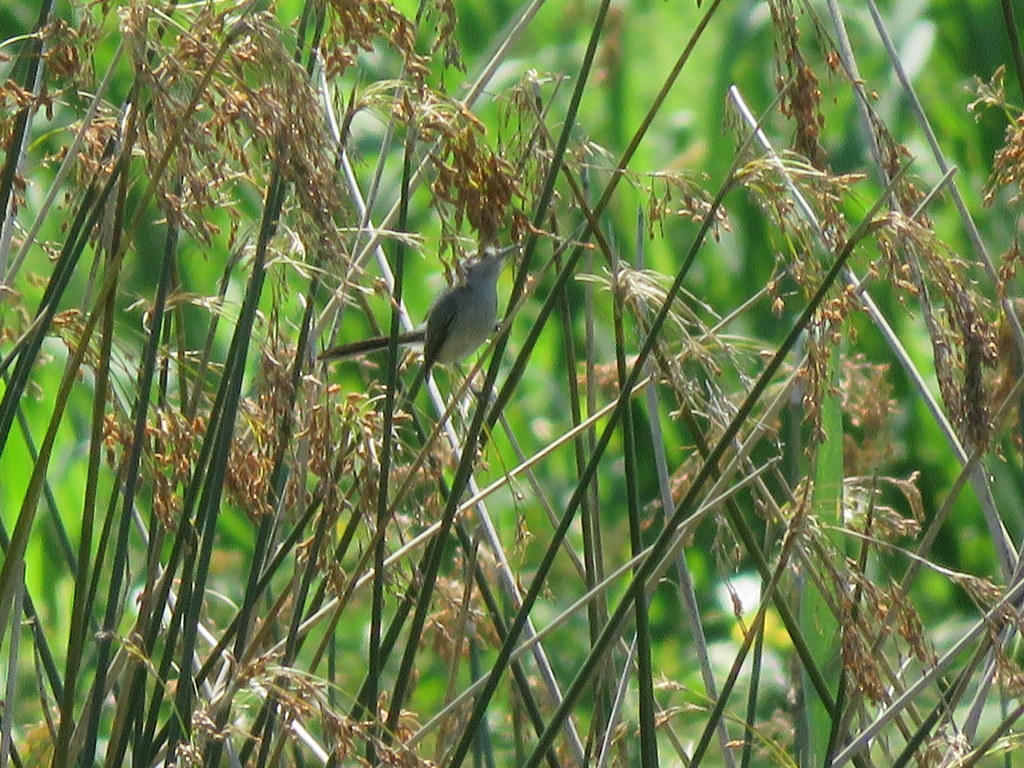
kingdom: Animalia
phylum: Chordata
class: Aves
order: Passeriformes
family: Polioptilidae
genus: Polioptila
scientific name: Polioptila dumicola
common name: Masked gnatcatcher
